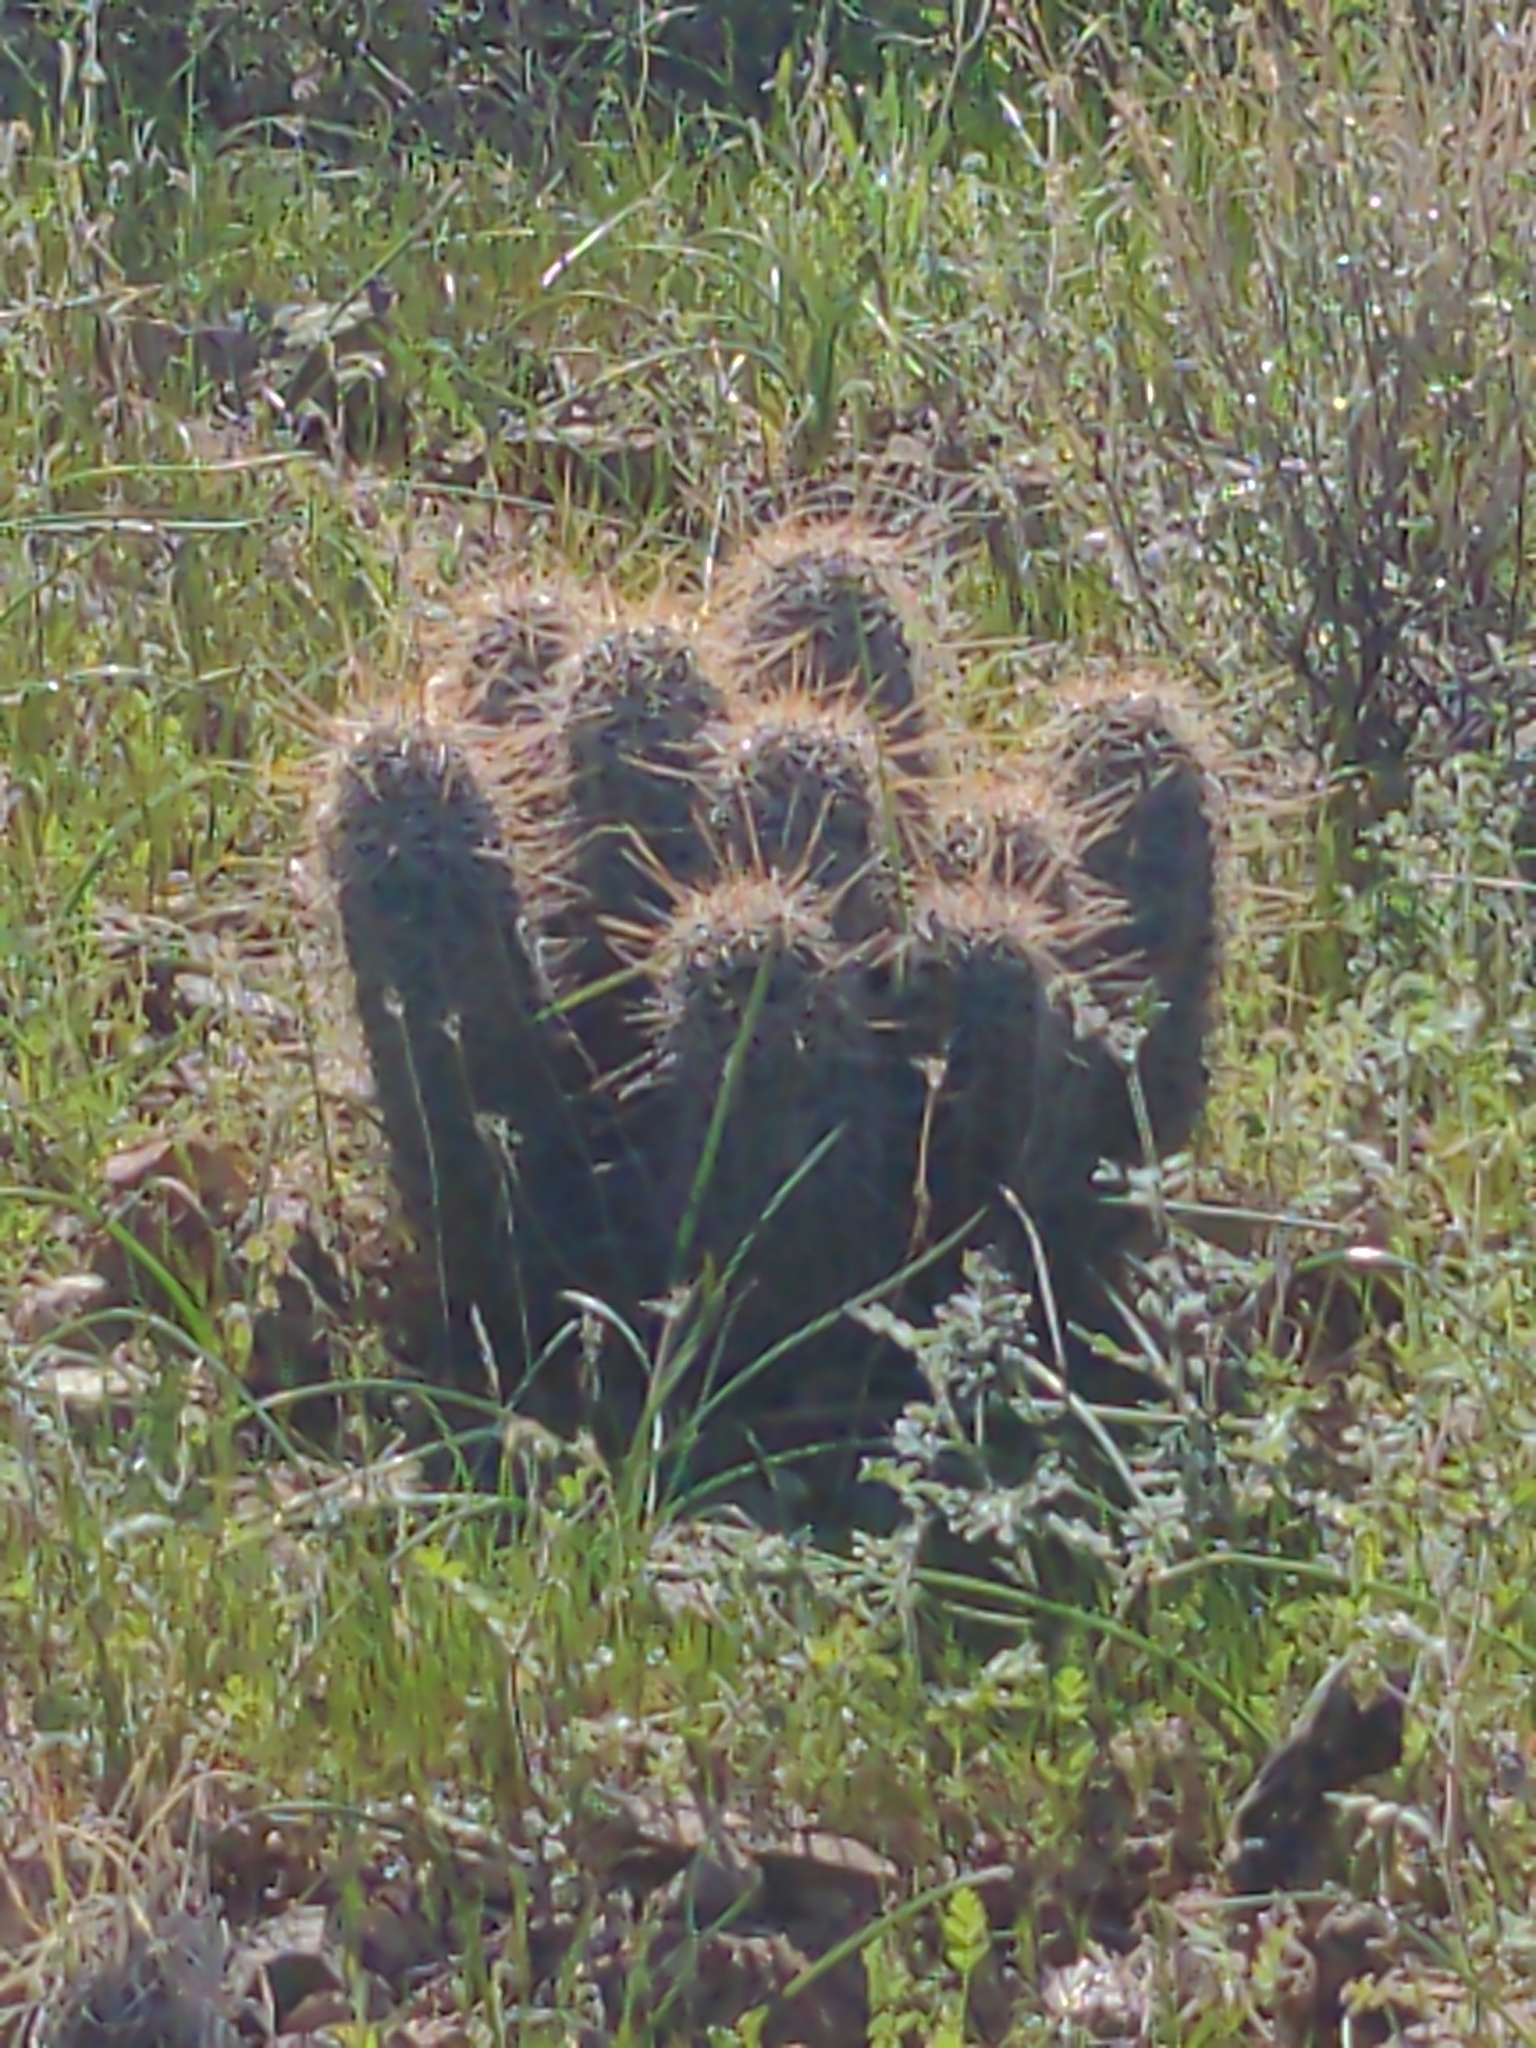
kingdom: Plantae
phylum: Tracheophyta
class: Magnoliopsida
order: Caryophyllales
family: Cactaceae
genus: Echinocereus
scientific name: Echinocereus fasciculatus
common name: Bundle hedgehog
